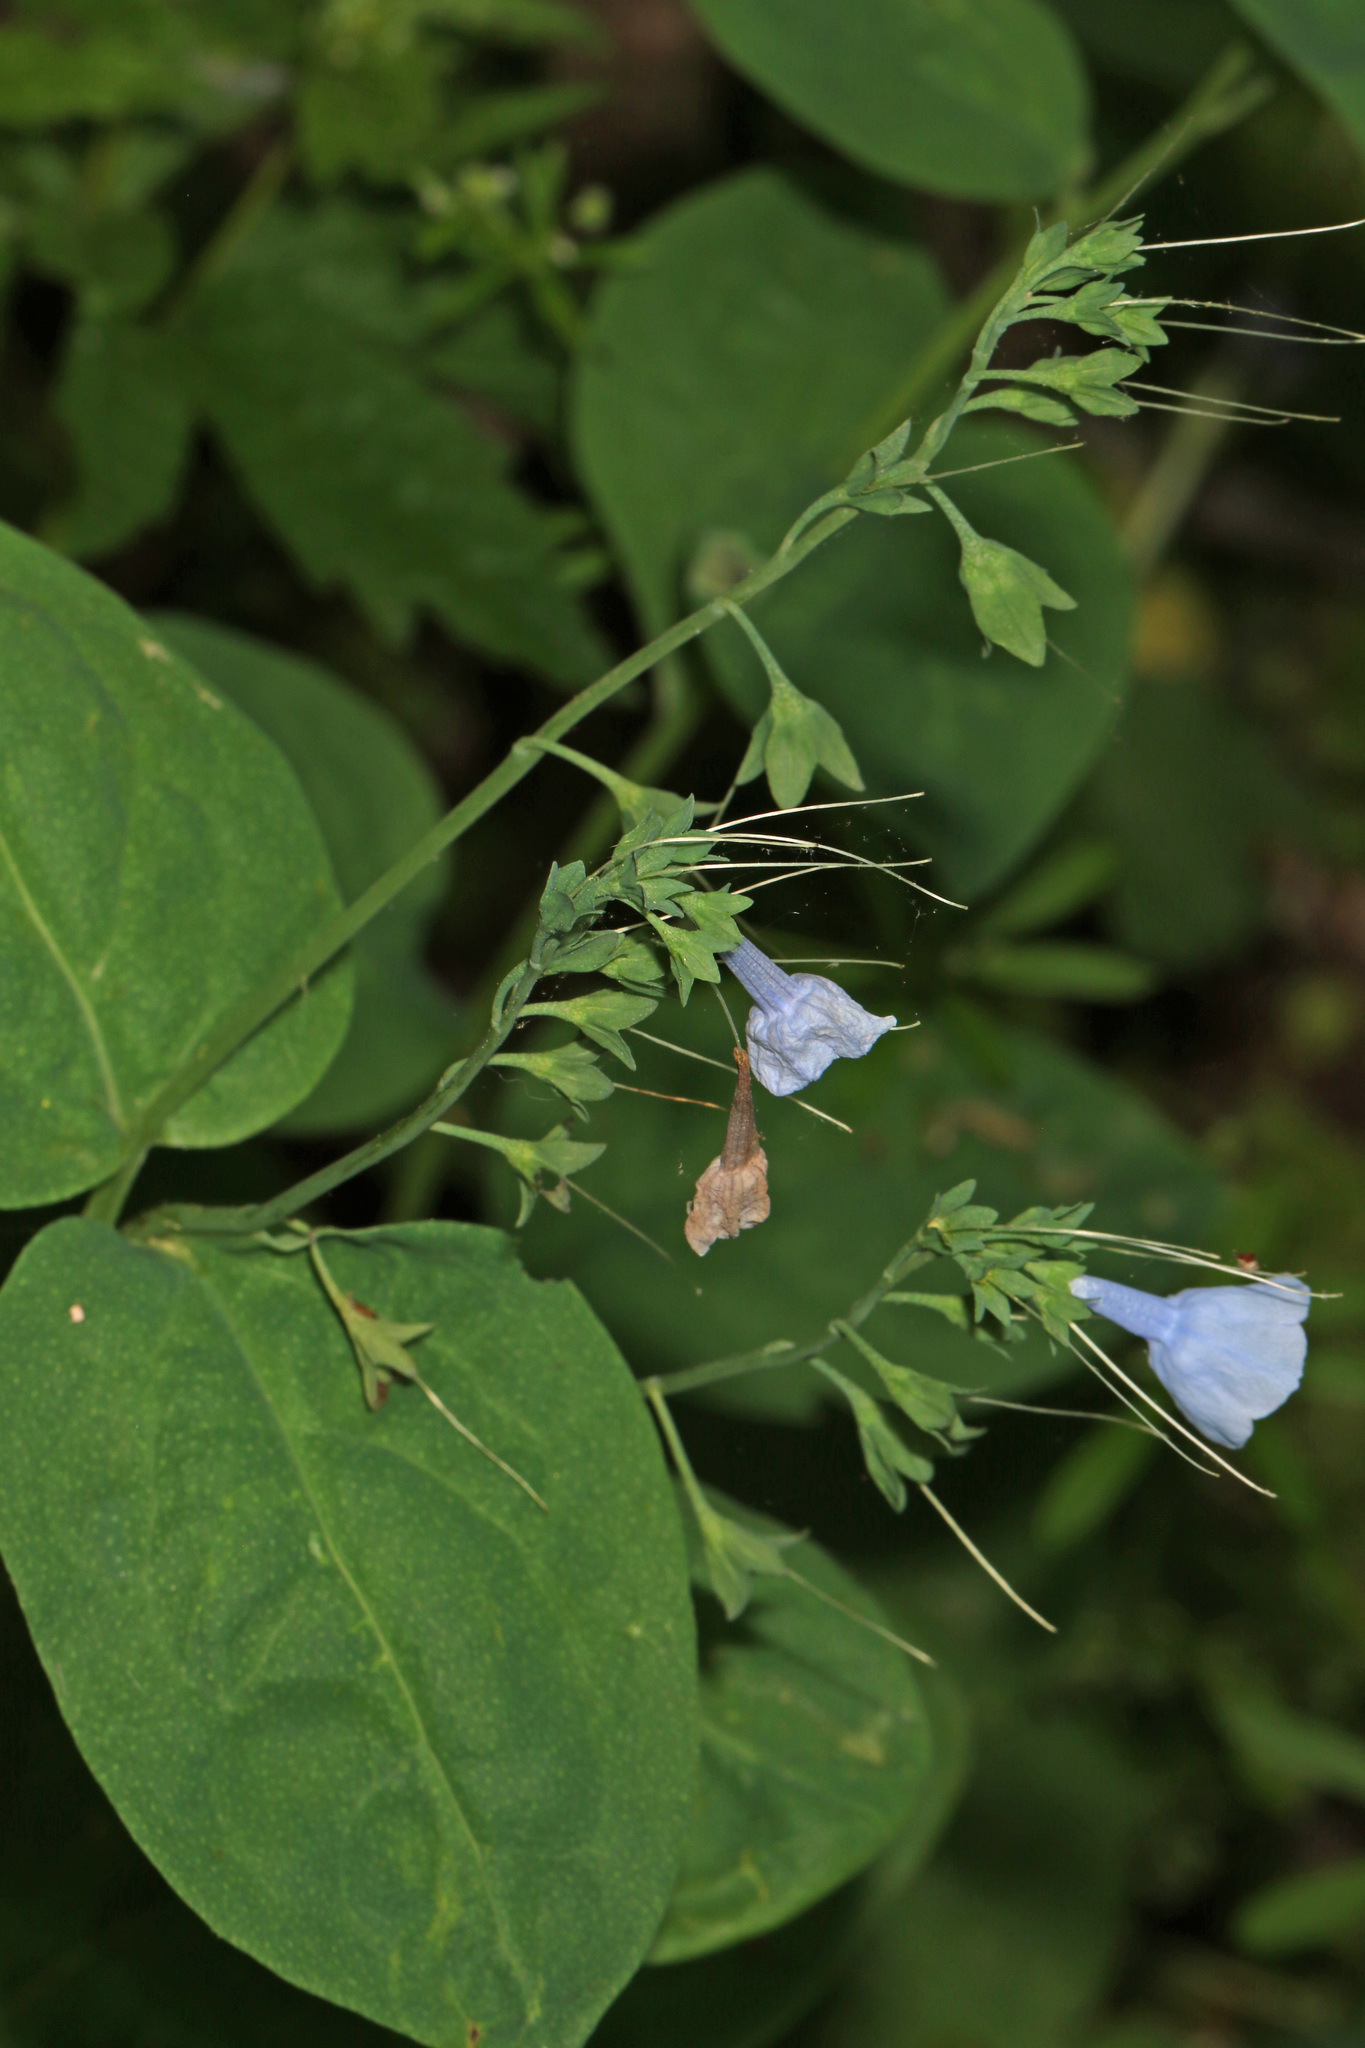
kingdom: Plantae
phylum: Tracheophyta
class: Magnoliopsida
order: Boraginales
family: Boraginaceae
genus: Mertensia
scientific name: Mertensia virginica
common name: Virginia bluebells
